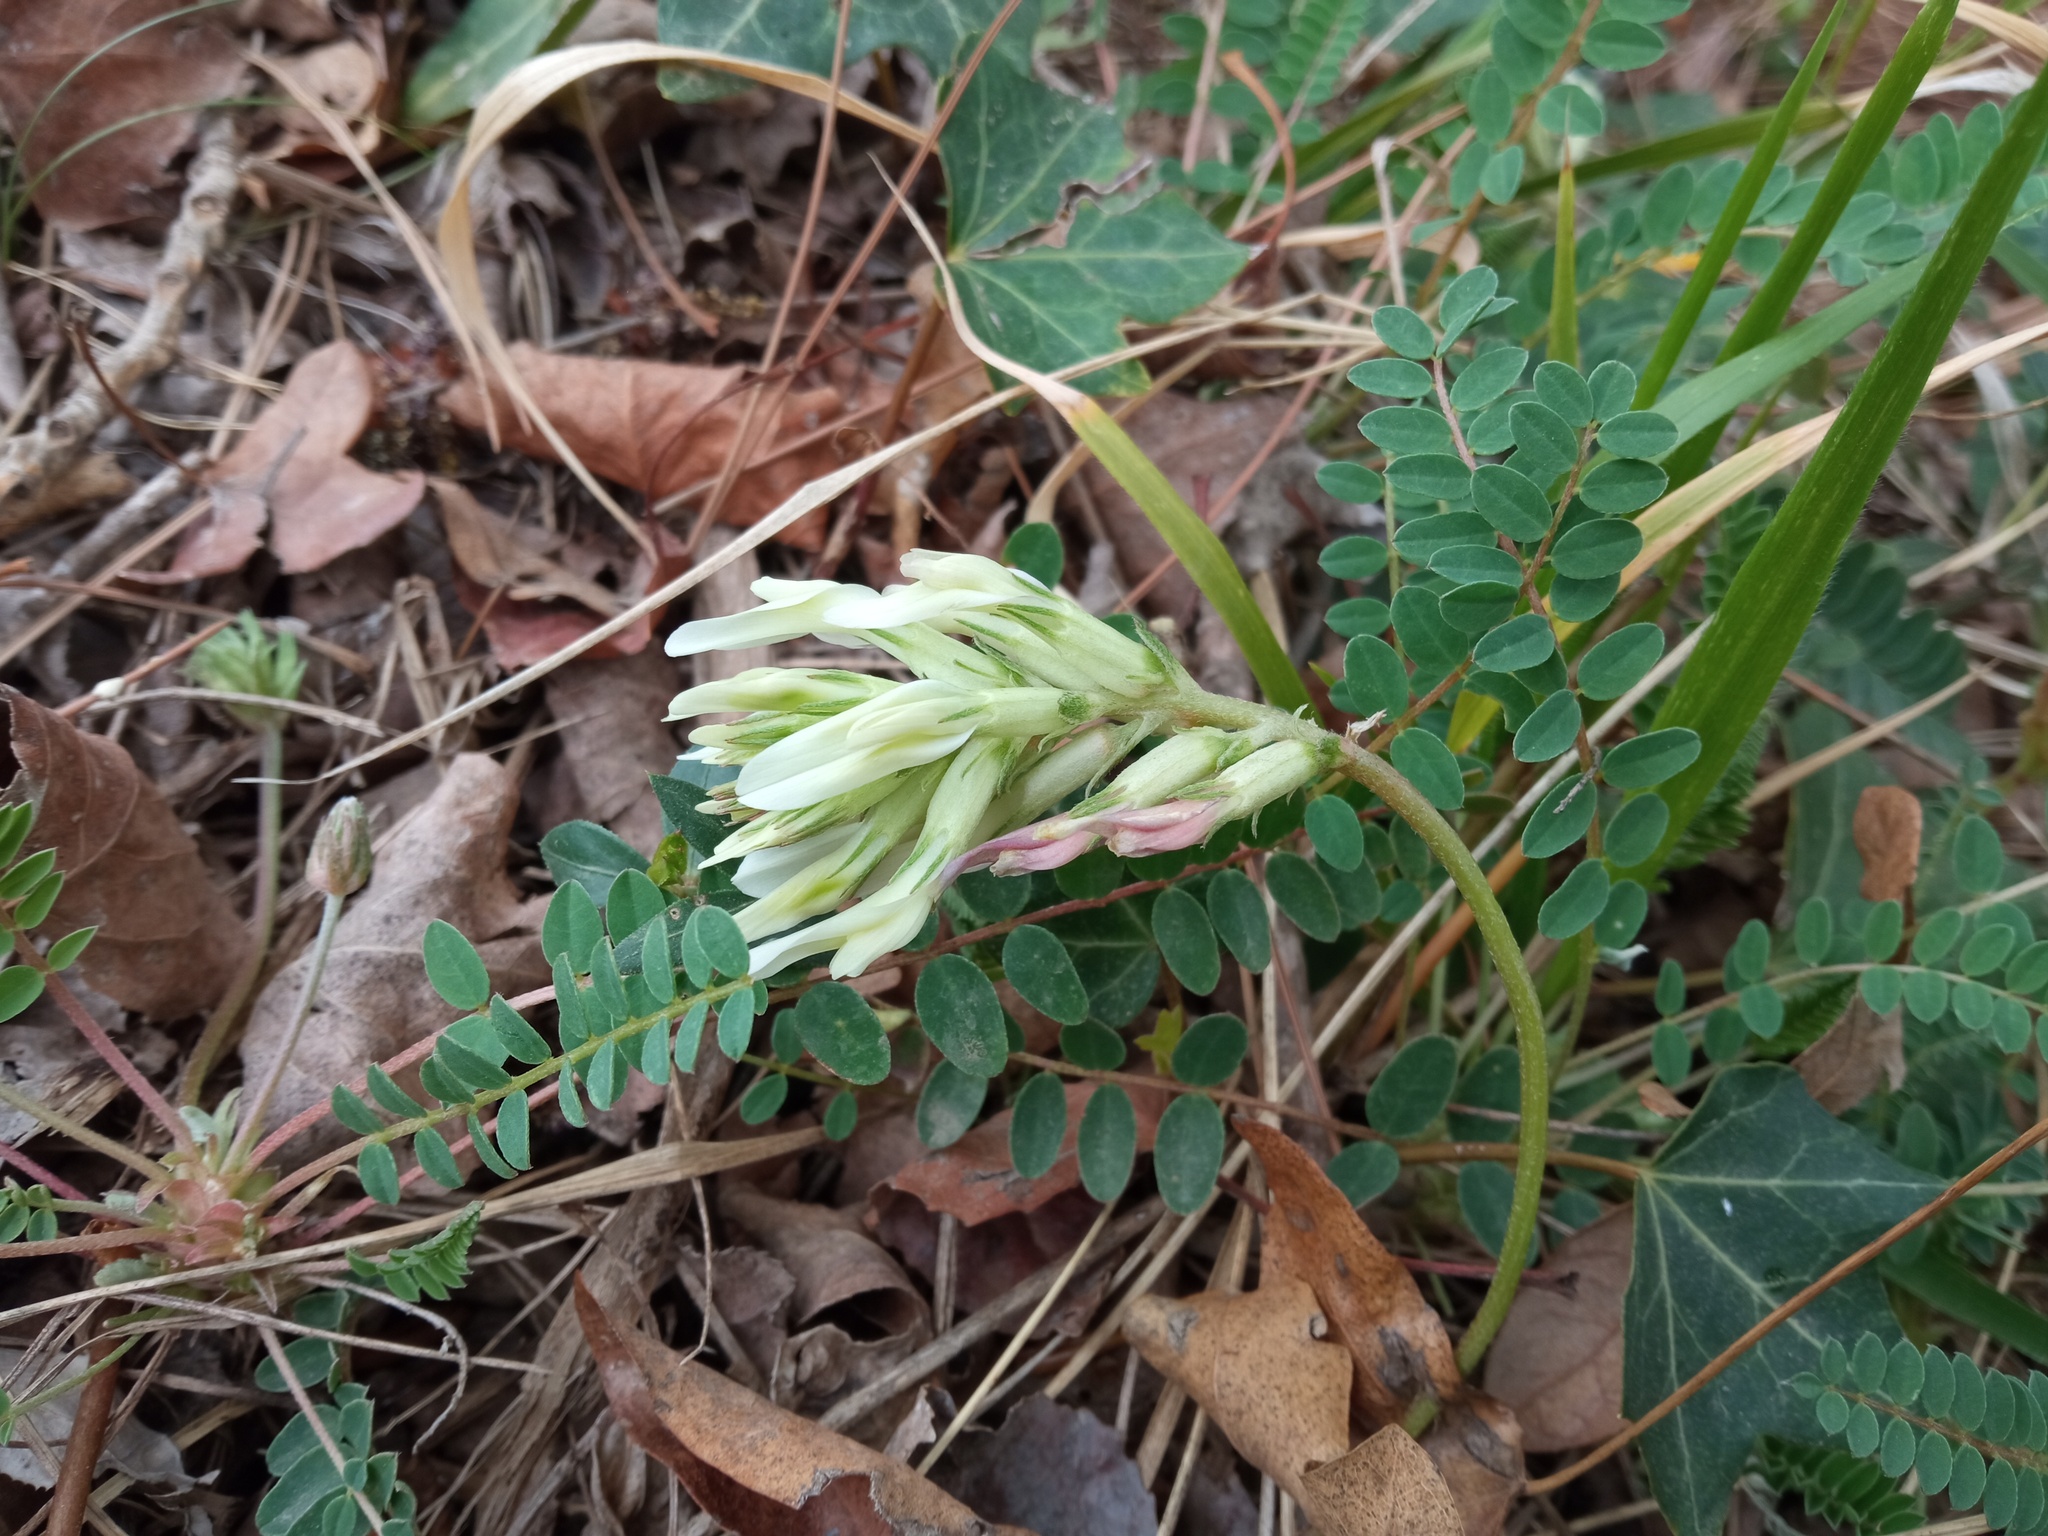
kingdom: Plantae
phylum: Tracheophyta
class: Magnoliopsida
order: Fabales
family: Fabaceae
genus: Astragalus
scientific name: Astragalus monspessulanus
